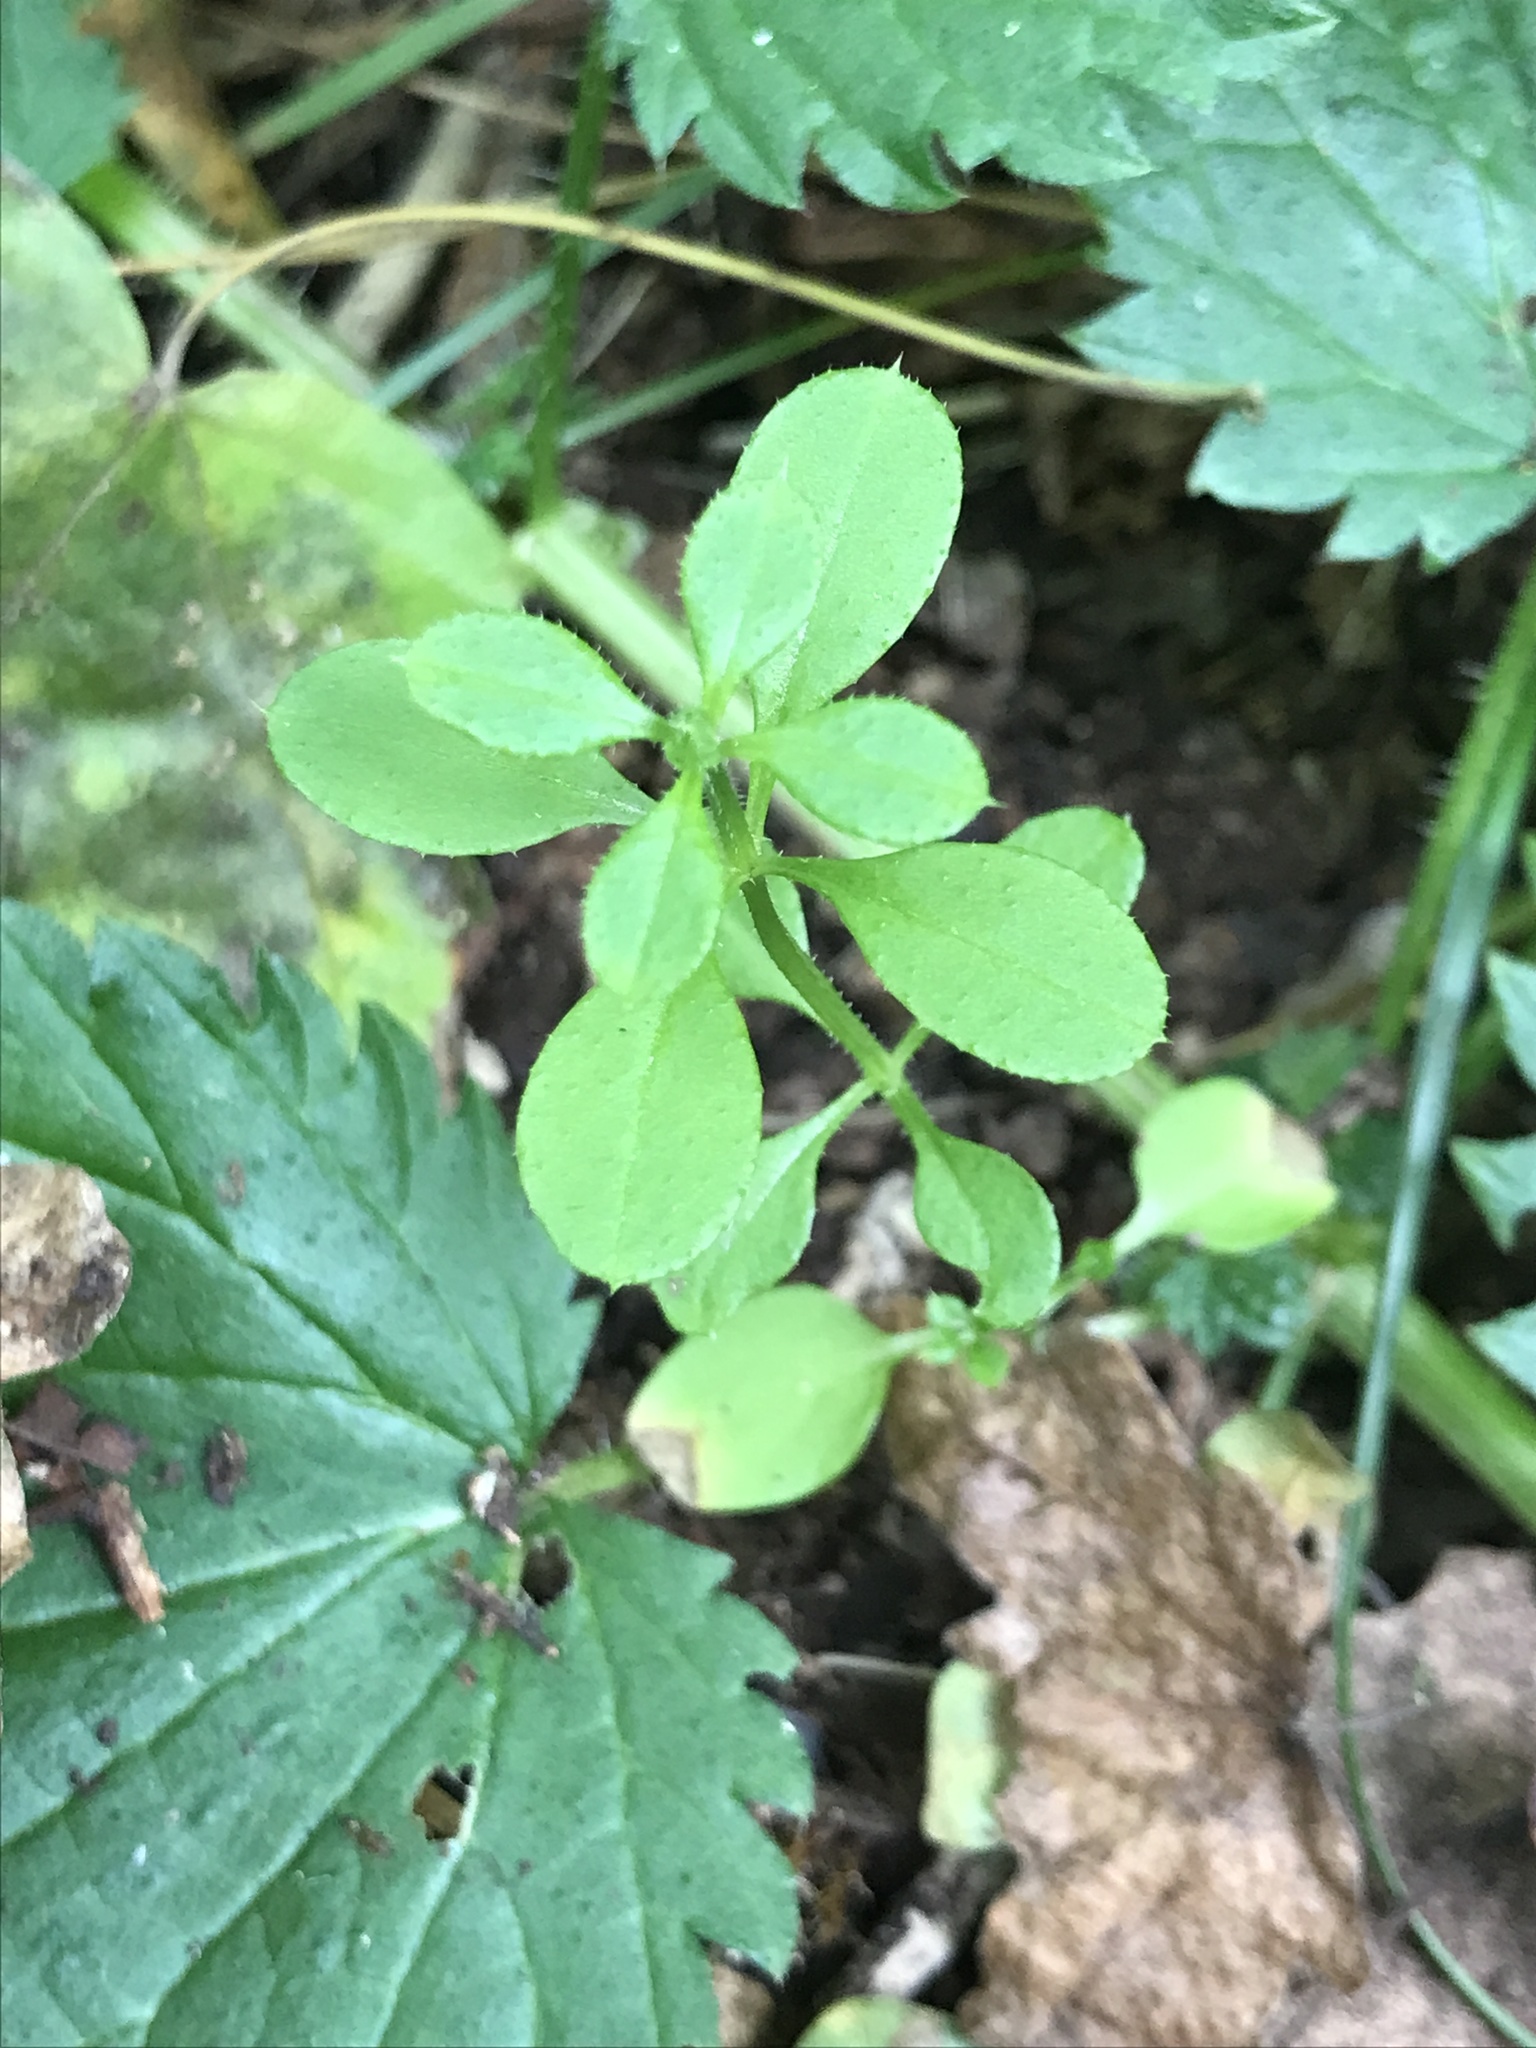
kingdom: Plantae
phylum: Tracheophyta
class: Magnoliopsida
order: Gentianales
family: Rubiaceae
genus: Galium
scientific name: Galium aparine
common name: Cleavers
